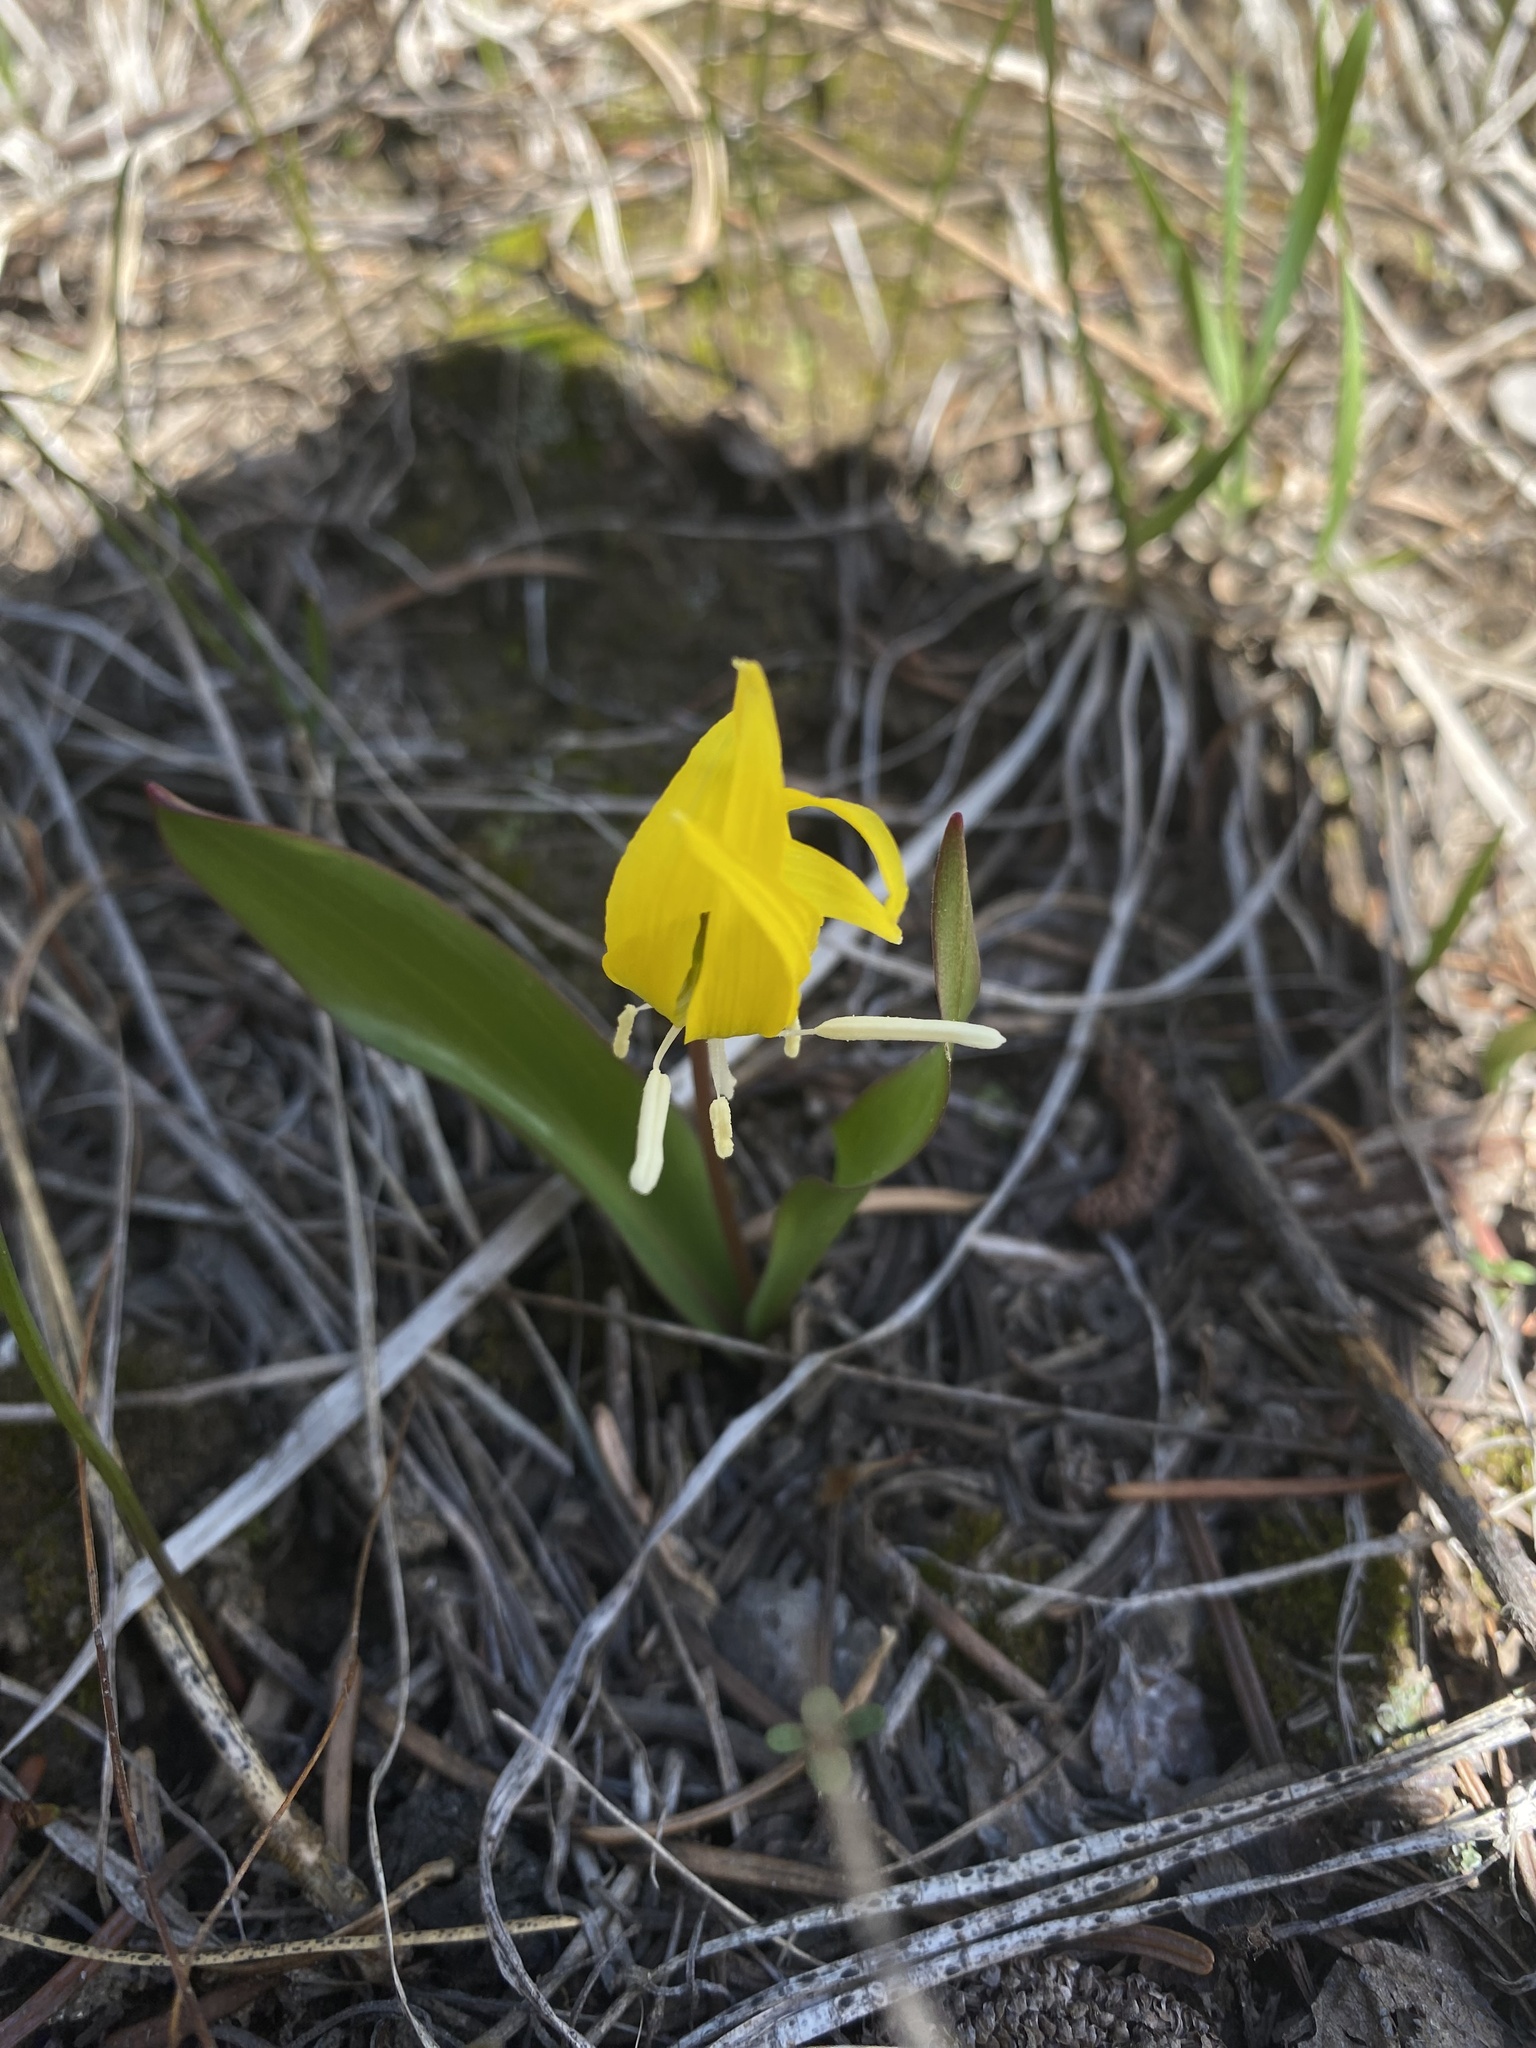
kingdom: Plantae
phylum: Tracheophyta
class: Liliopsida
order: Liliales
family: Liliaceae
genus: Erythronium
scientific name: Erythronium grandiflorum
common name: Avalanche-lily
